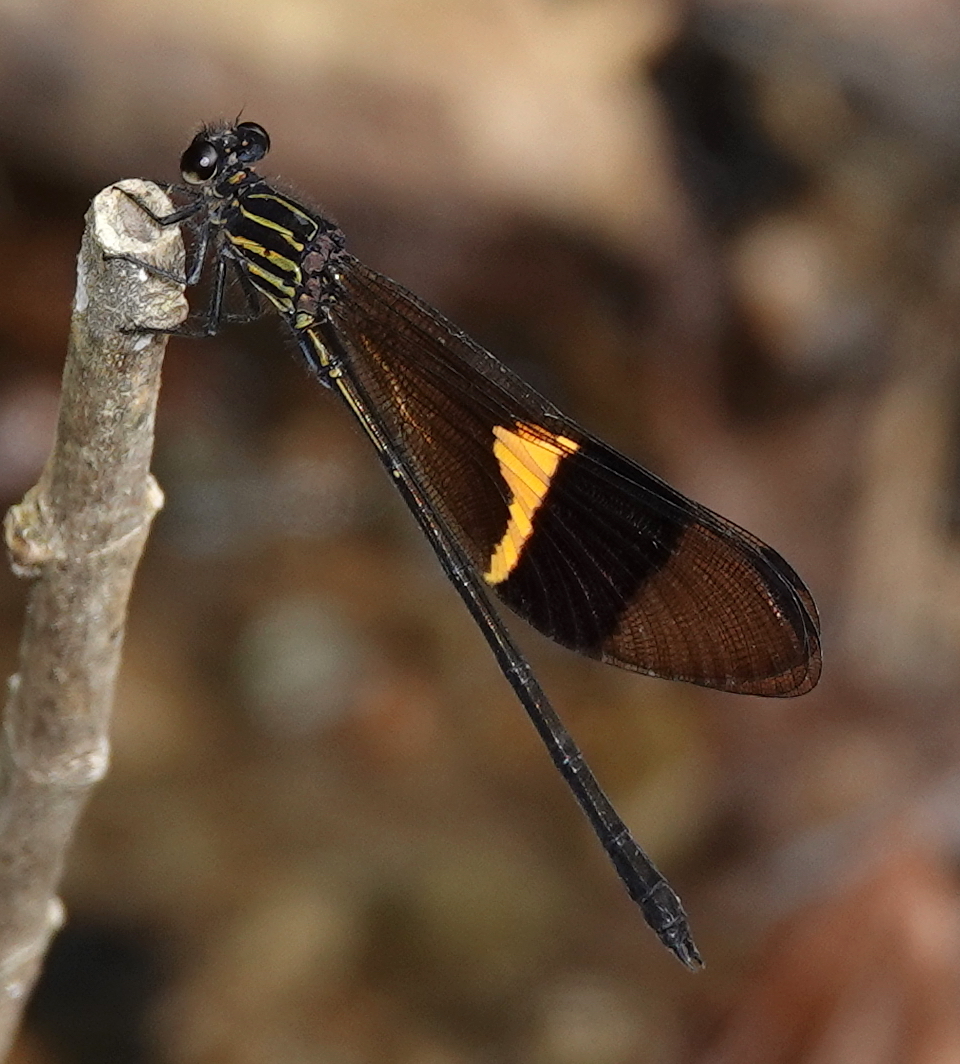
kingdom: Animalia
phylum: Arthropoda
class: Insecta
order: Odonata
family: Polythoridae
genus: Euthore
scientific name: Euthore fassli
